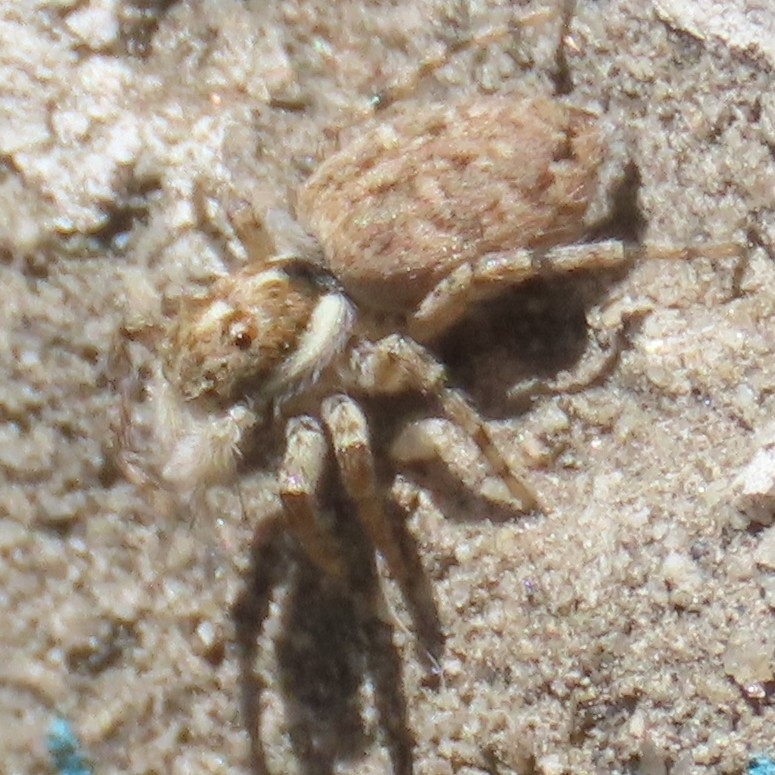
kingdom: Animalia
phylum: Arthropoda
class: Arachnida
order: Araneae
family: Salticidae
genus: Menemerus
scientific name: Menemerus semilimbatus
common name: Jumping spider
